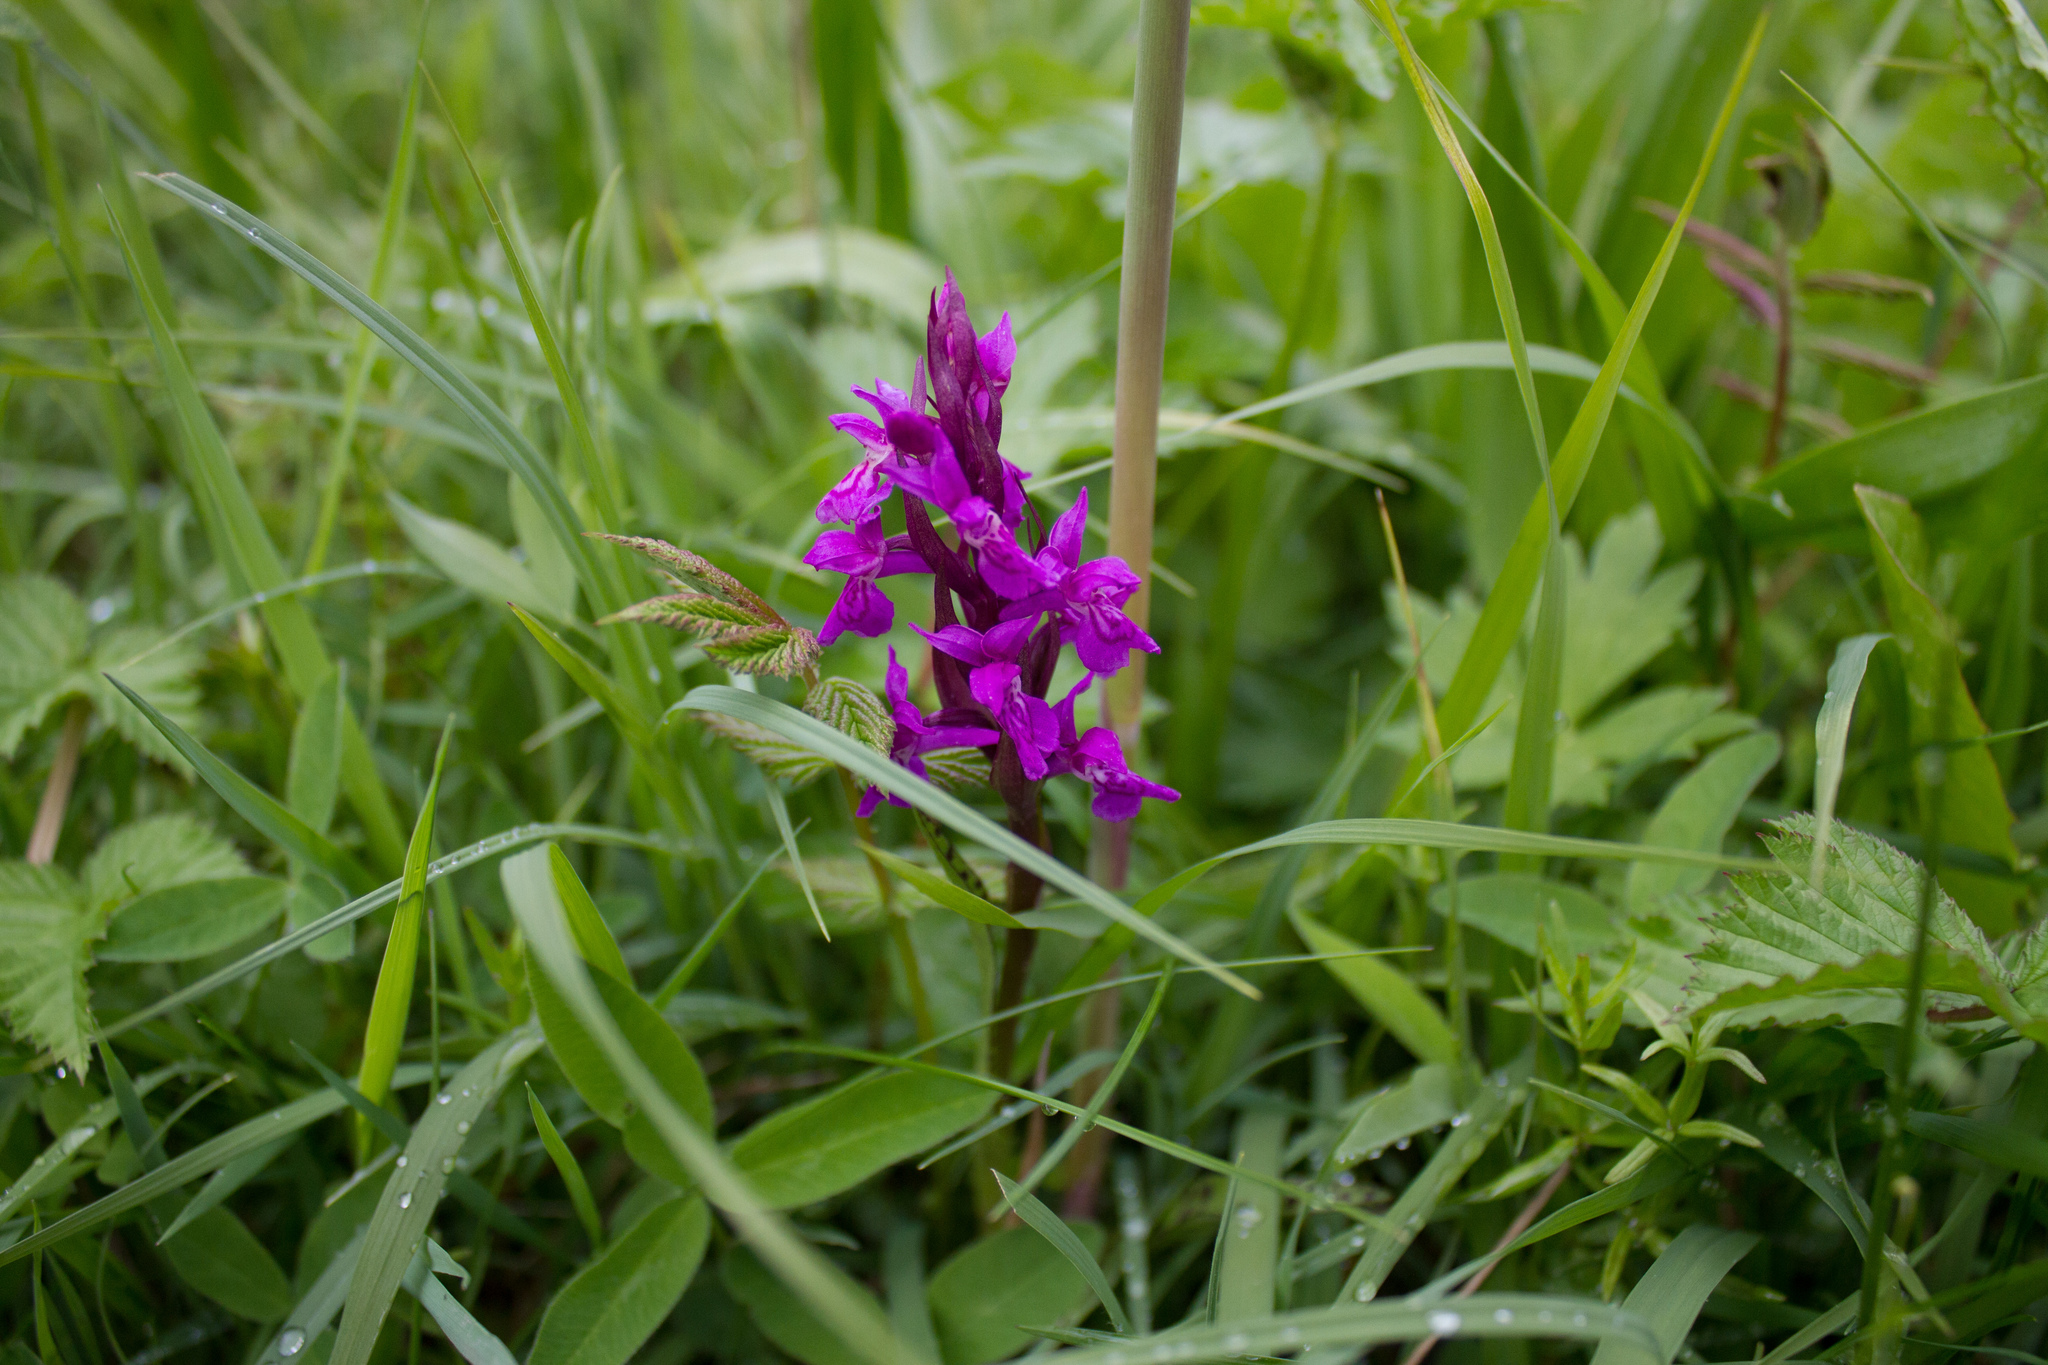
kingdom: Plantae
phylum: Tracheophyta
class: Liliopsida
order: Asparagales
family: Orchidaceae
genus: Dactylorhiza
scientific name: Dactylorhiza majalis
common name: Marsh orchid
